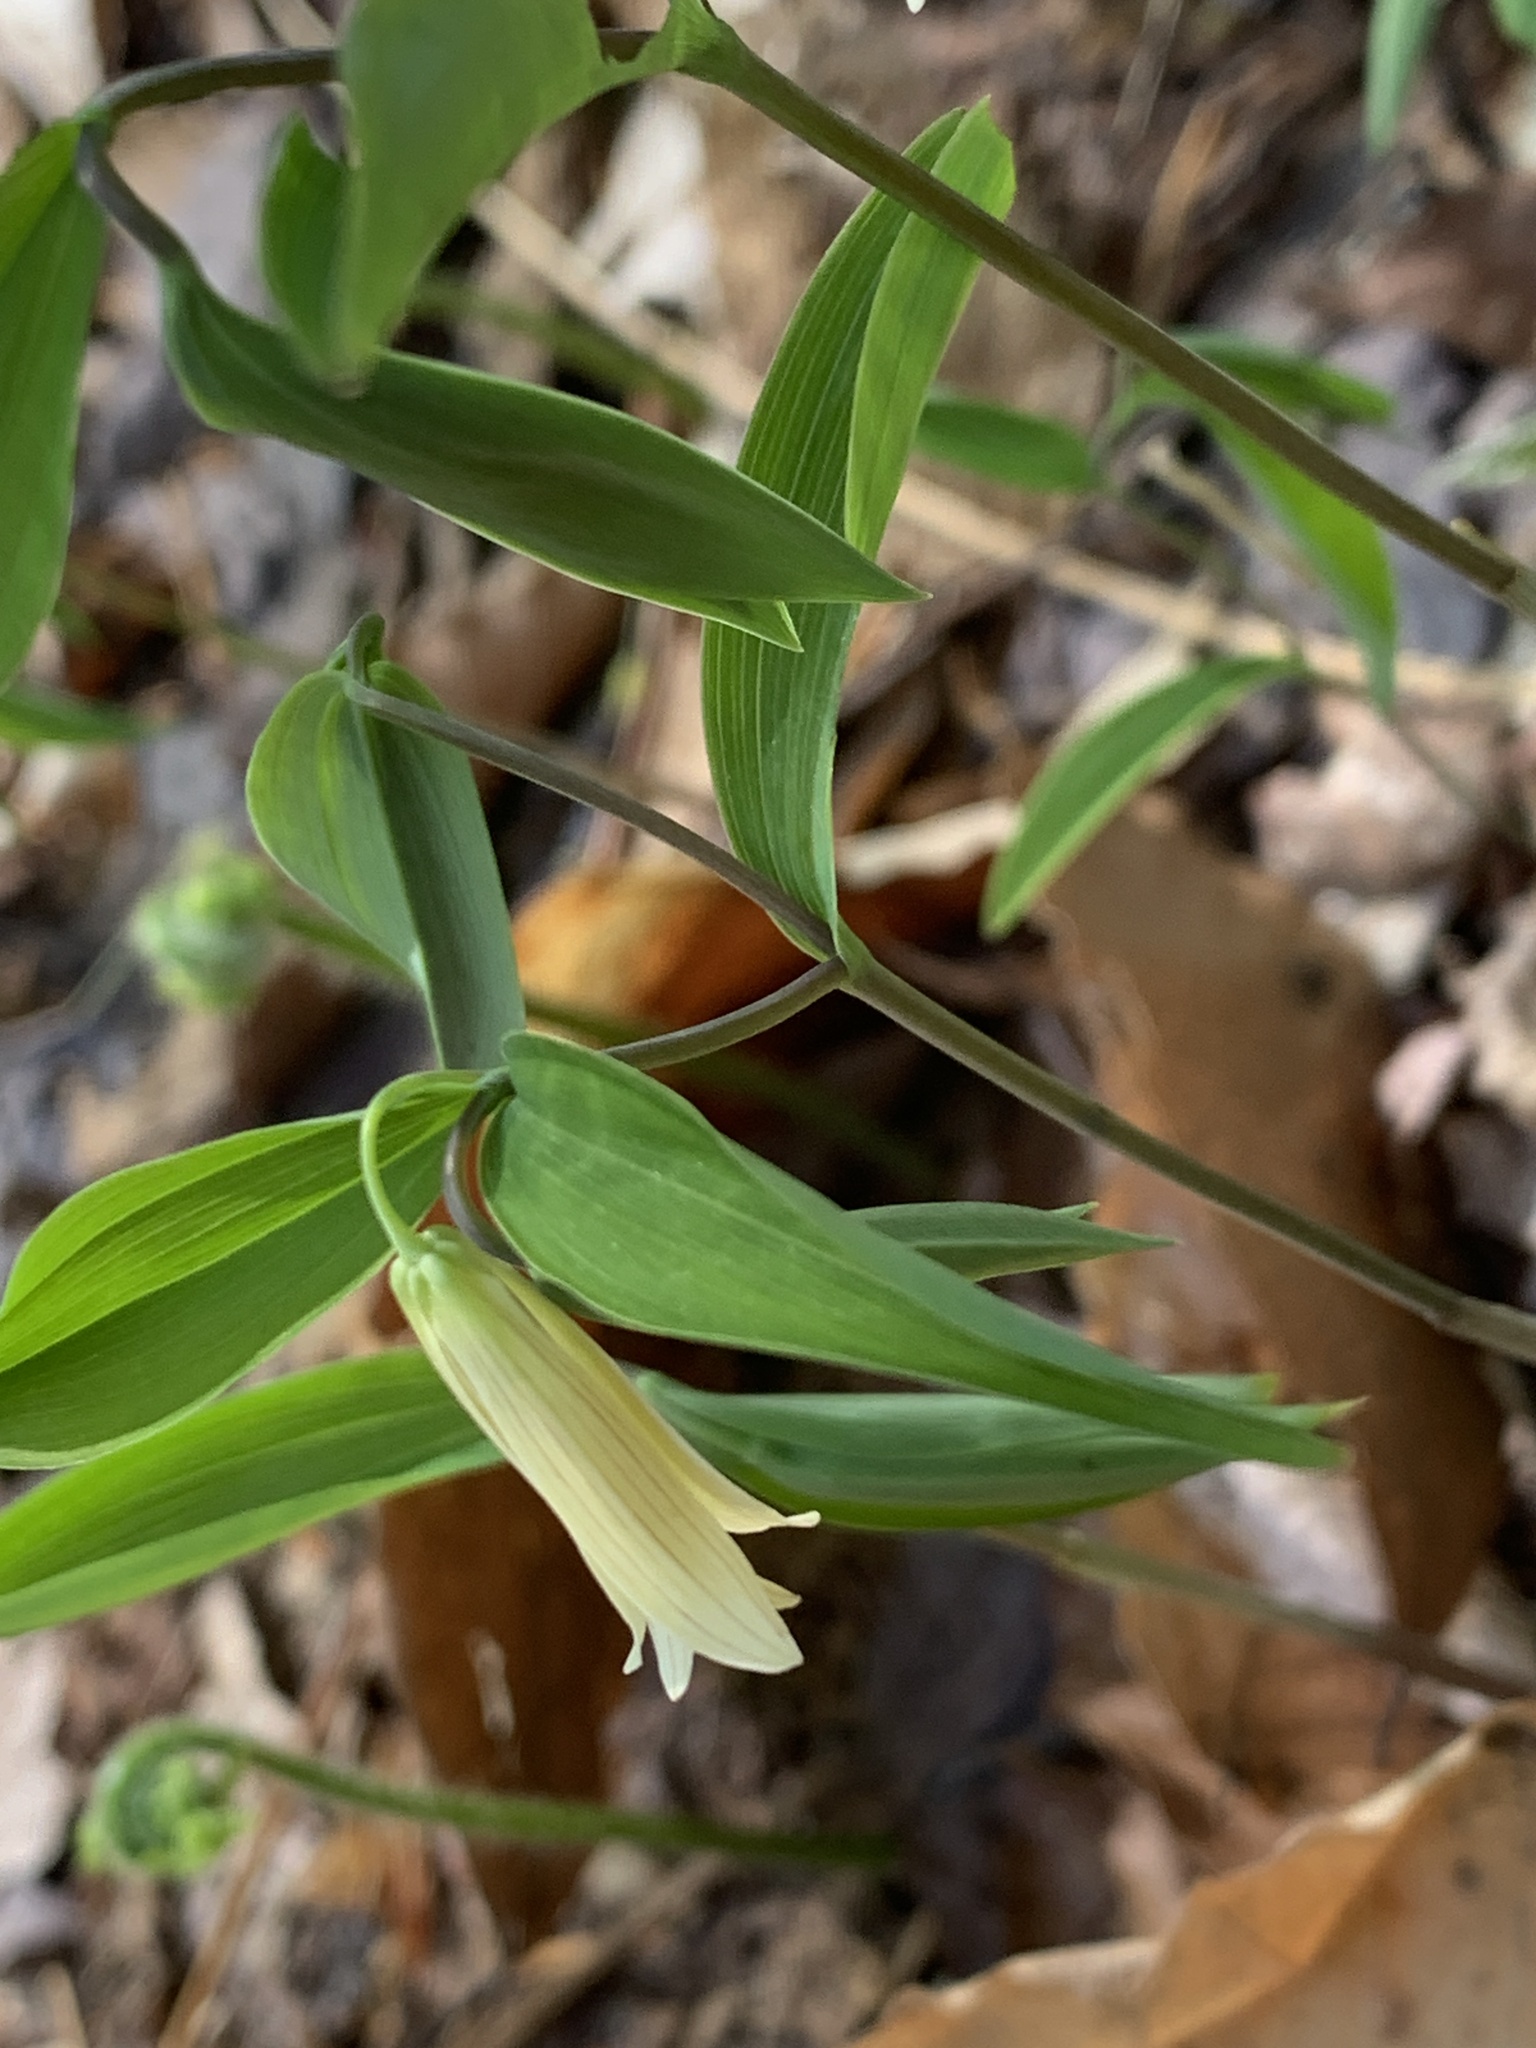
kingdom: Plantae
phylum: Tracheophyta
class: Liliopsida
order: Liliales
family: Colchicaceae
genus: Uvularia
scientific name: Uvularia sessilifolia
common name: Straw-lily
